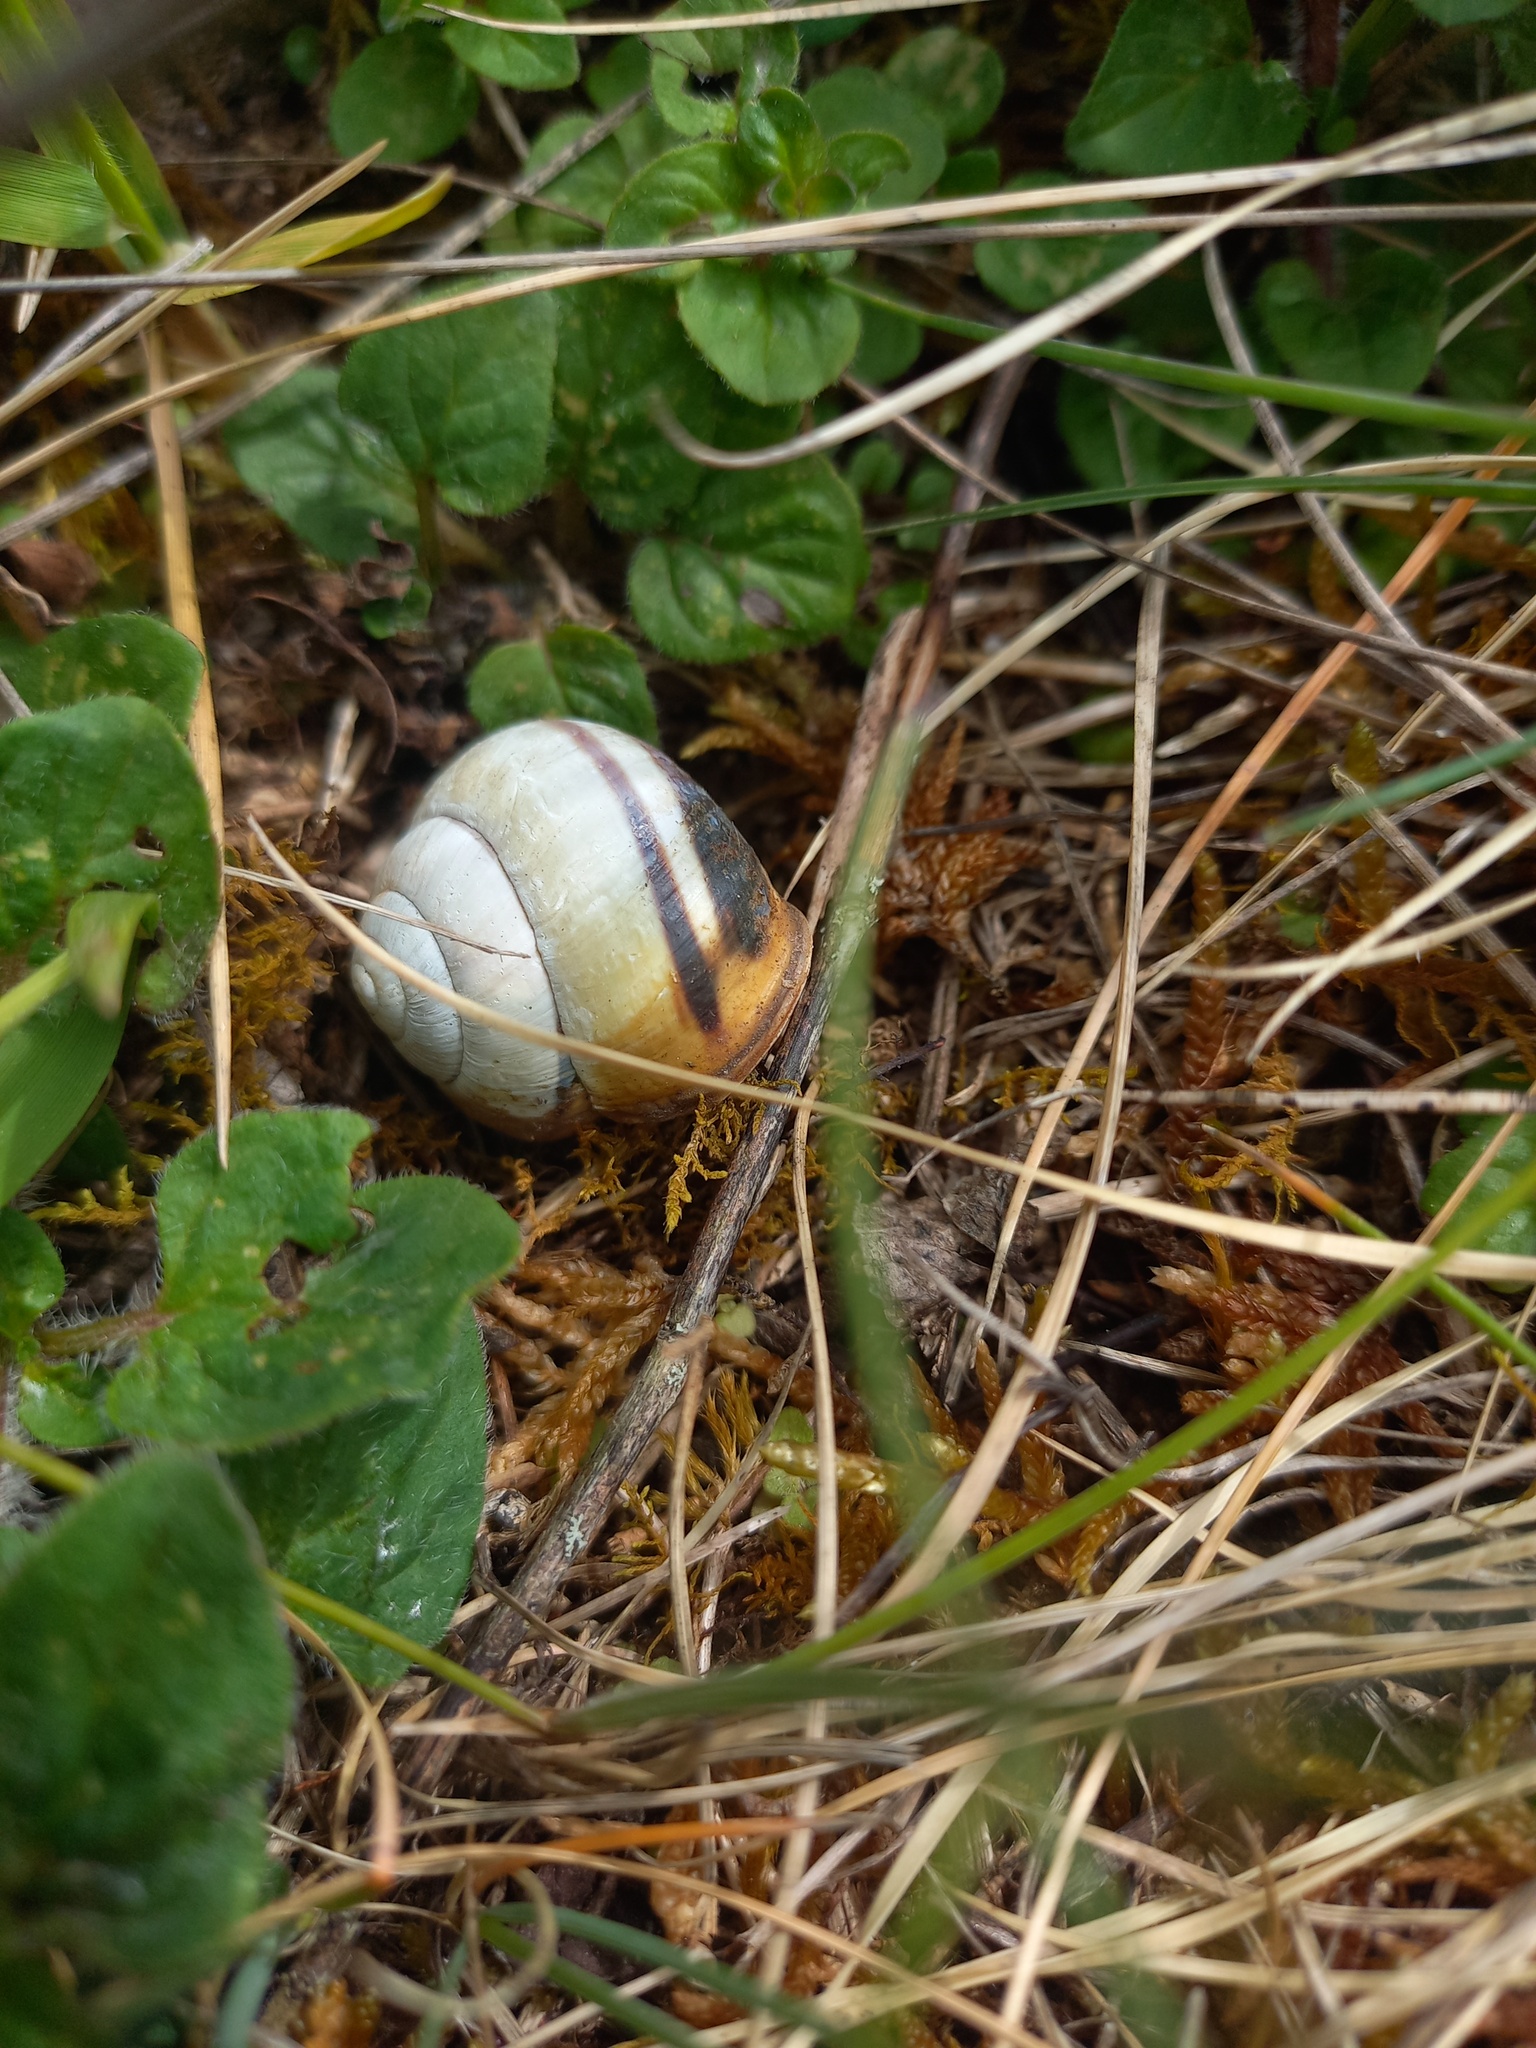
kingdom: Animalia
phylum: Mollusca
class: Gastropoda
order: Stylommatophora
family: Helicidae
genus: Cepaea
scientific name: Cepaea nemoralis
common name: Grovesnail
